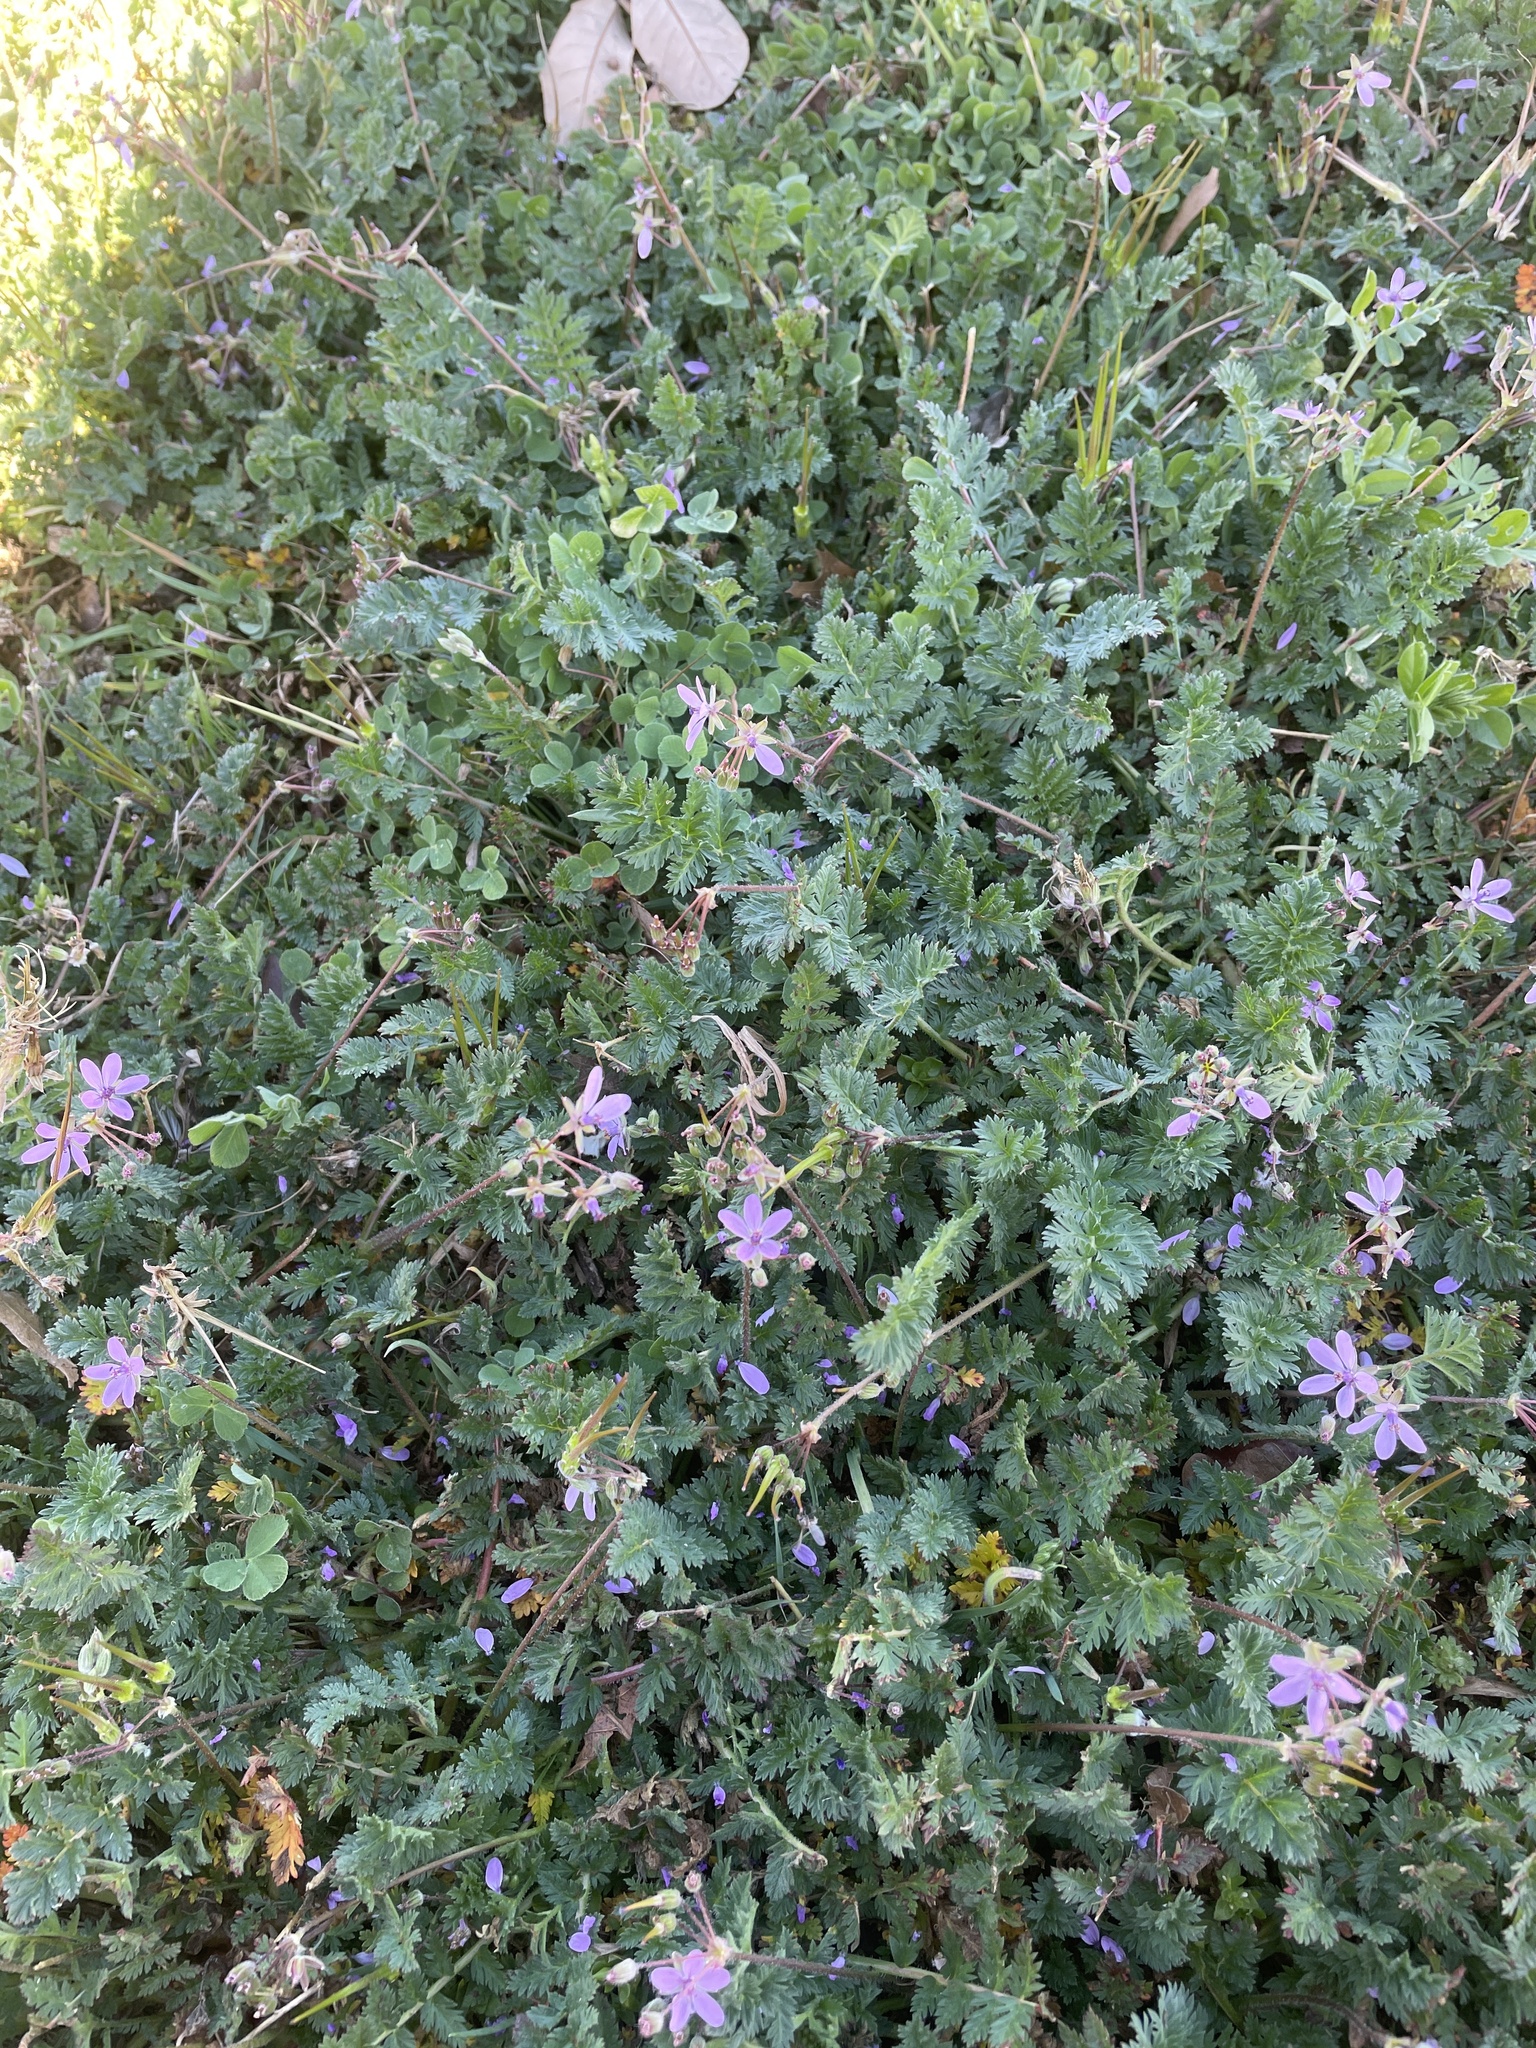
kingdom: Plantae
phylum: Tracheophyta
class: Magnoliopsida
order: Geraniales
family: Geraniaceae
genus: Erodium
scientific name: Erodium cicutarium
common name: Common stork's-bill
